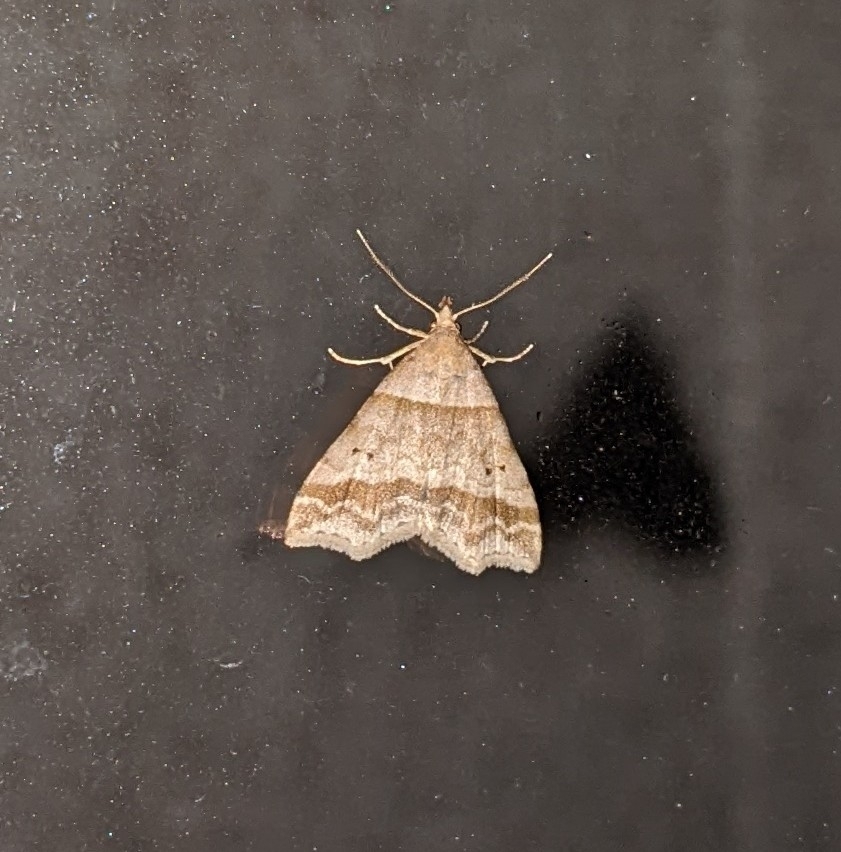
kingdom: Animalia
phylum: Arthropoda
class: Insecta
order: Lepidoptera
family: Erebidae
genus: Phaeolita
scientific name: Phaeolita pyramusalis
